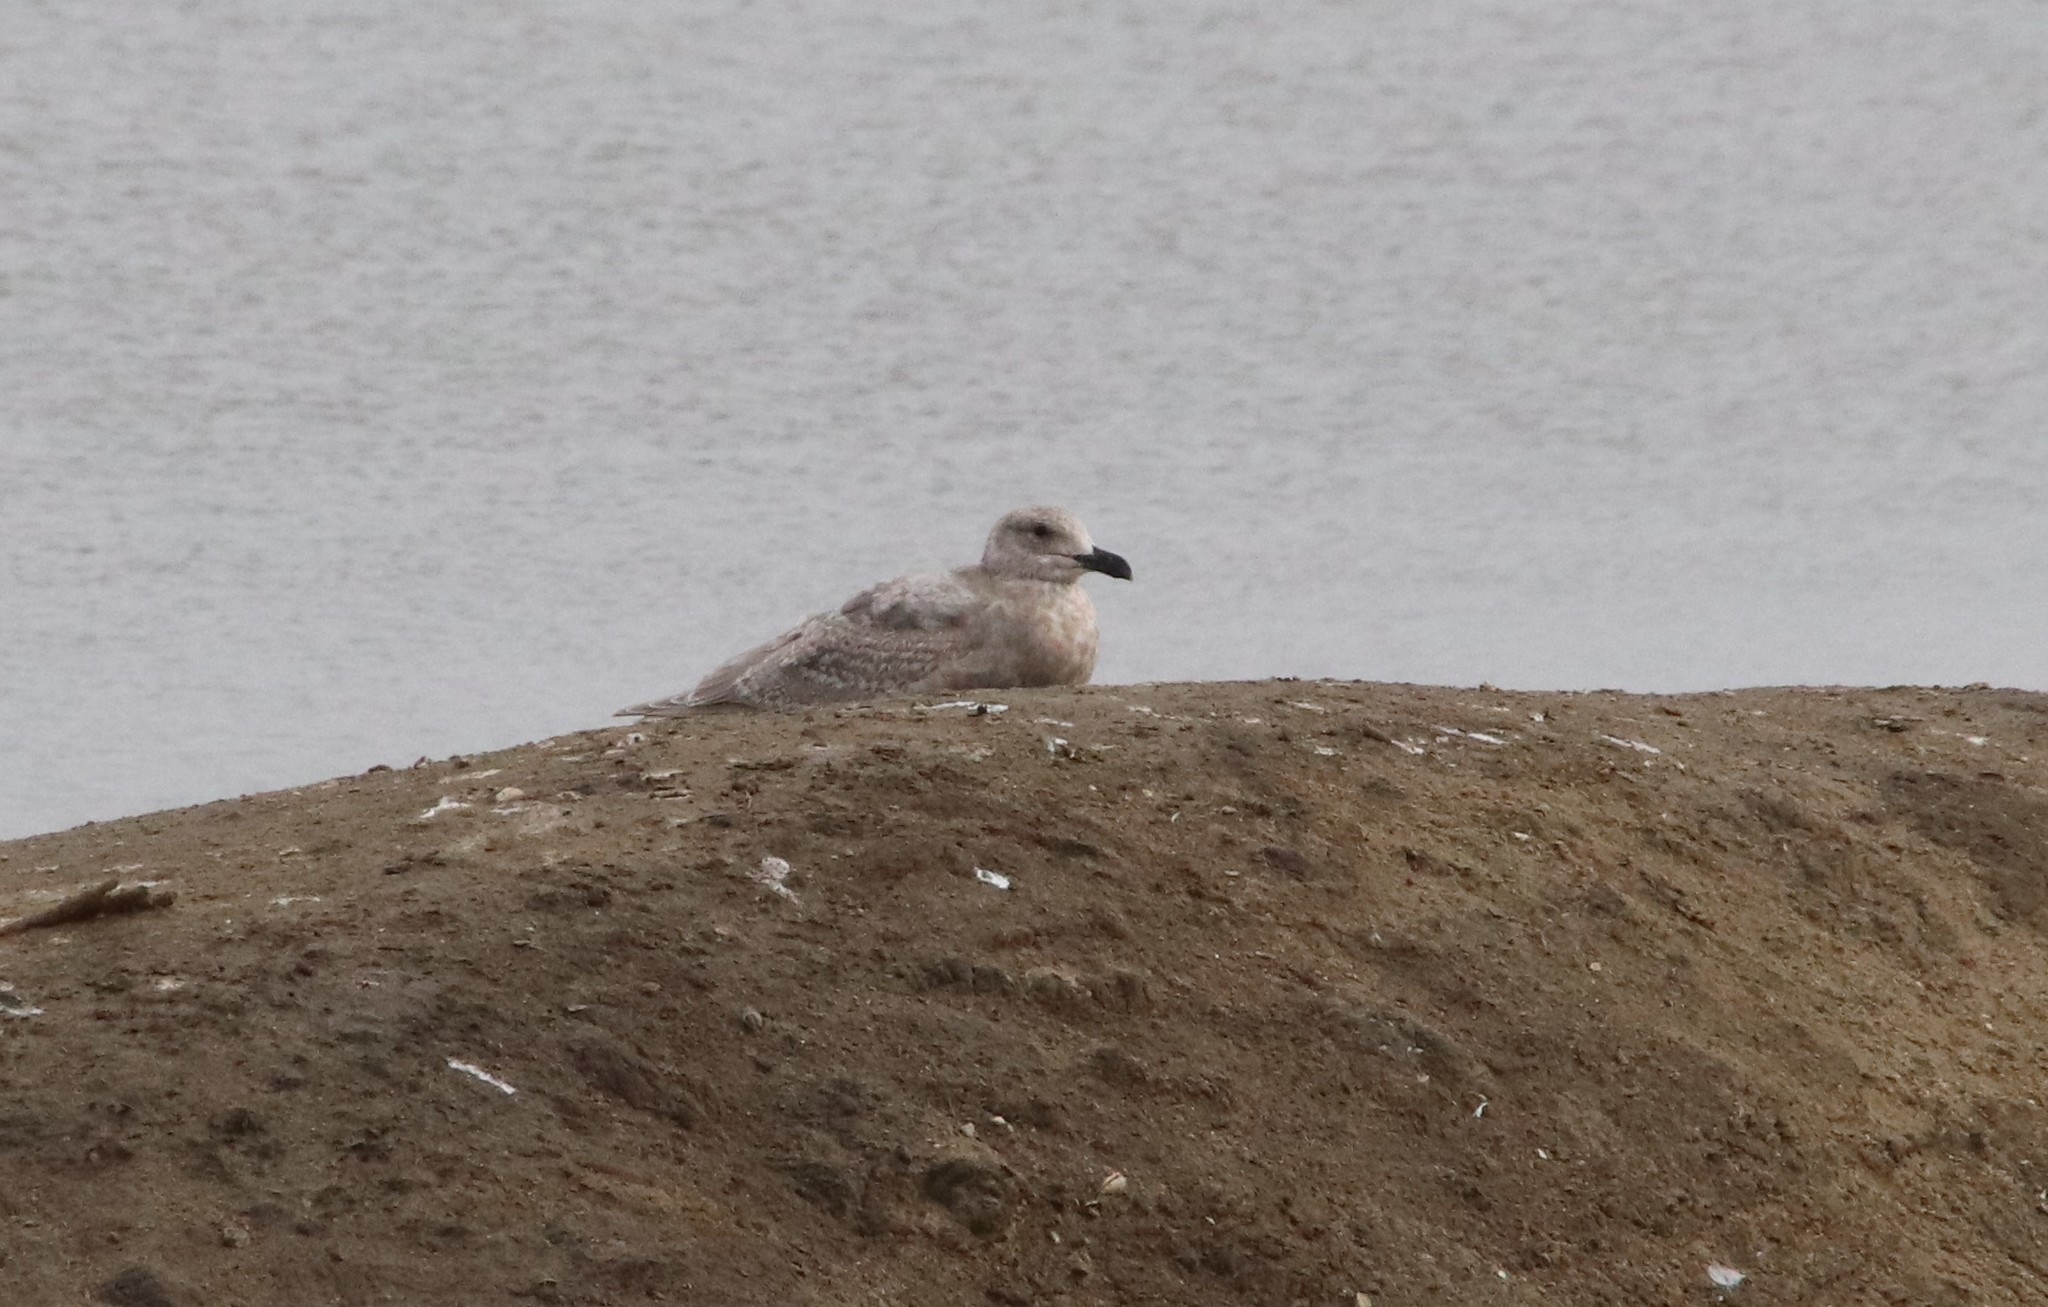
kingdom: Animalia
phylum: Chordata
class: Aves
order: Charadriiformes
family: Laridae
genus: Larus
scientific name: Larus glaucescens
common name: Glaucous-winged gull
